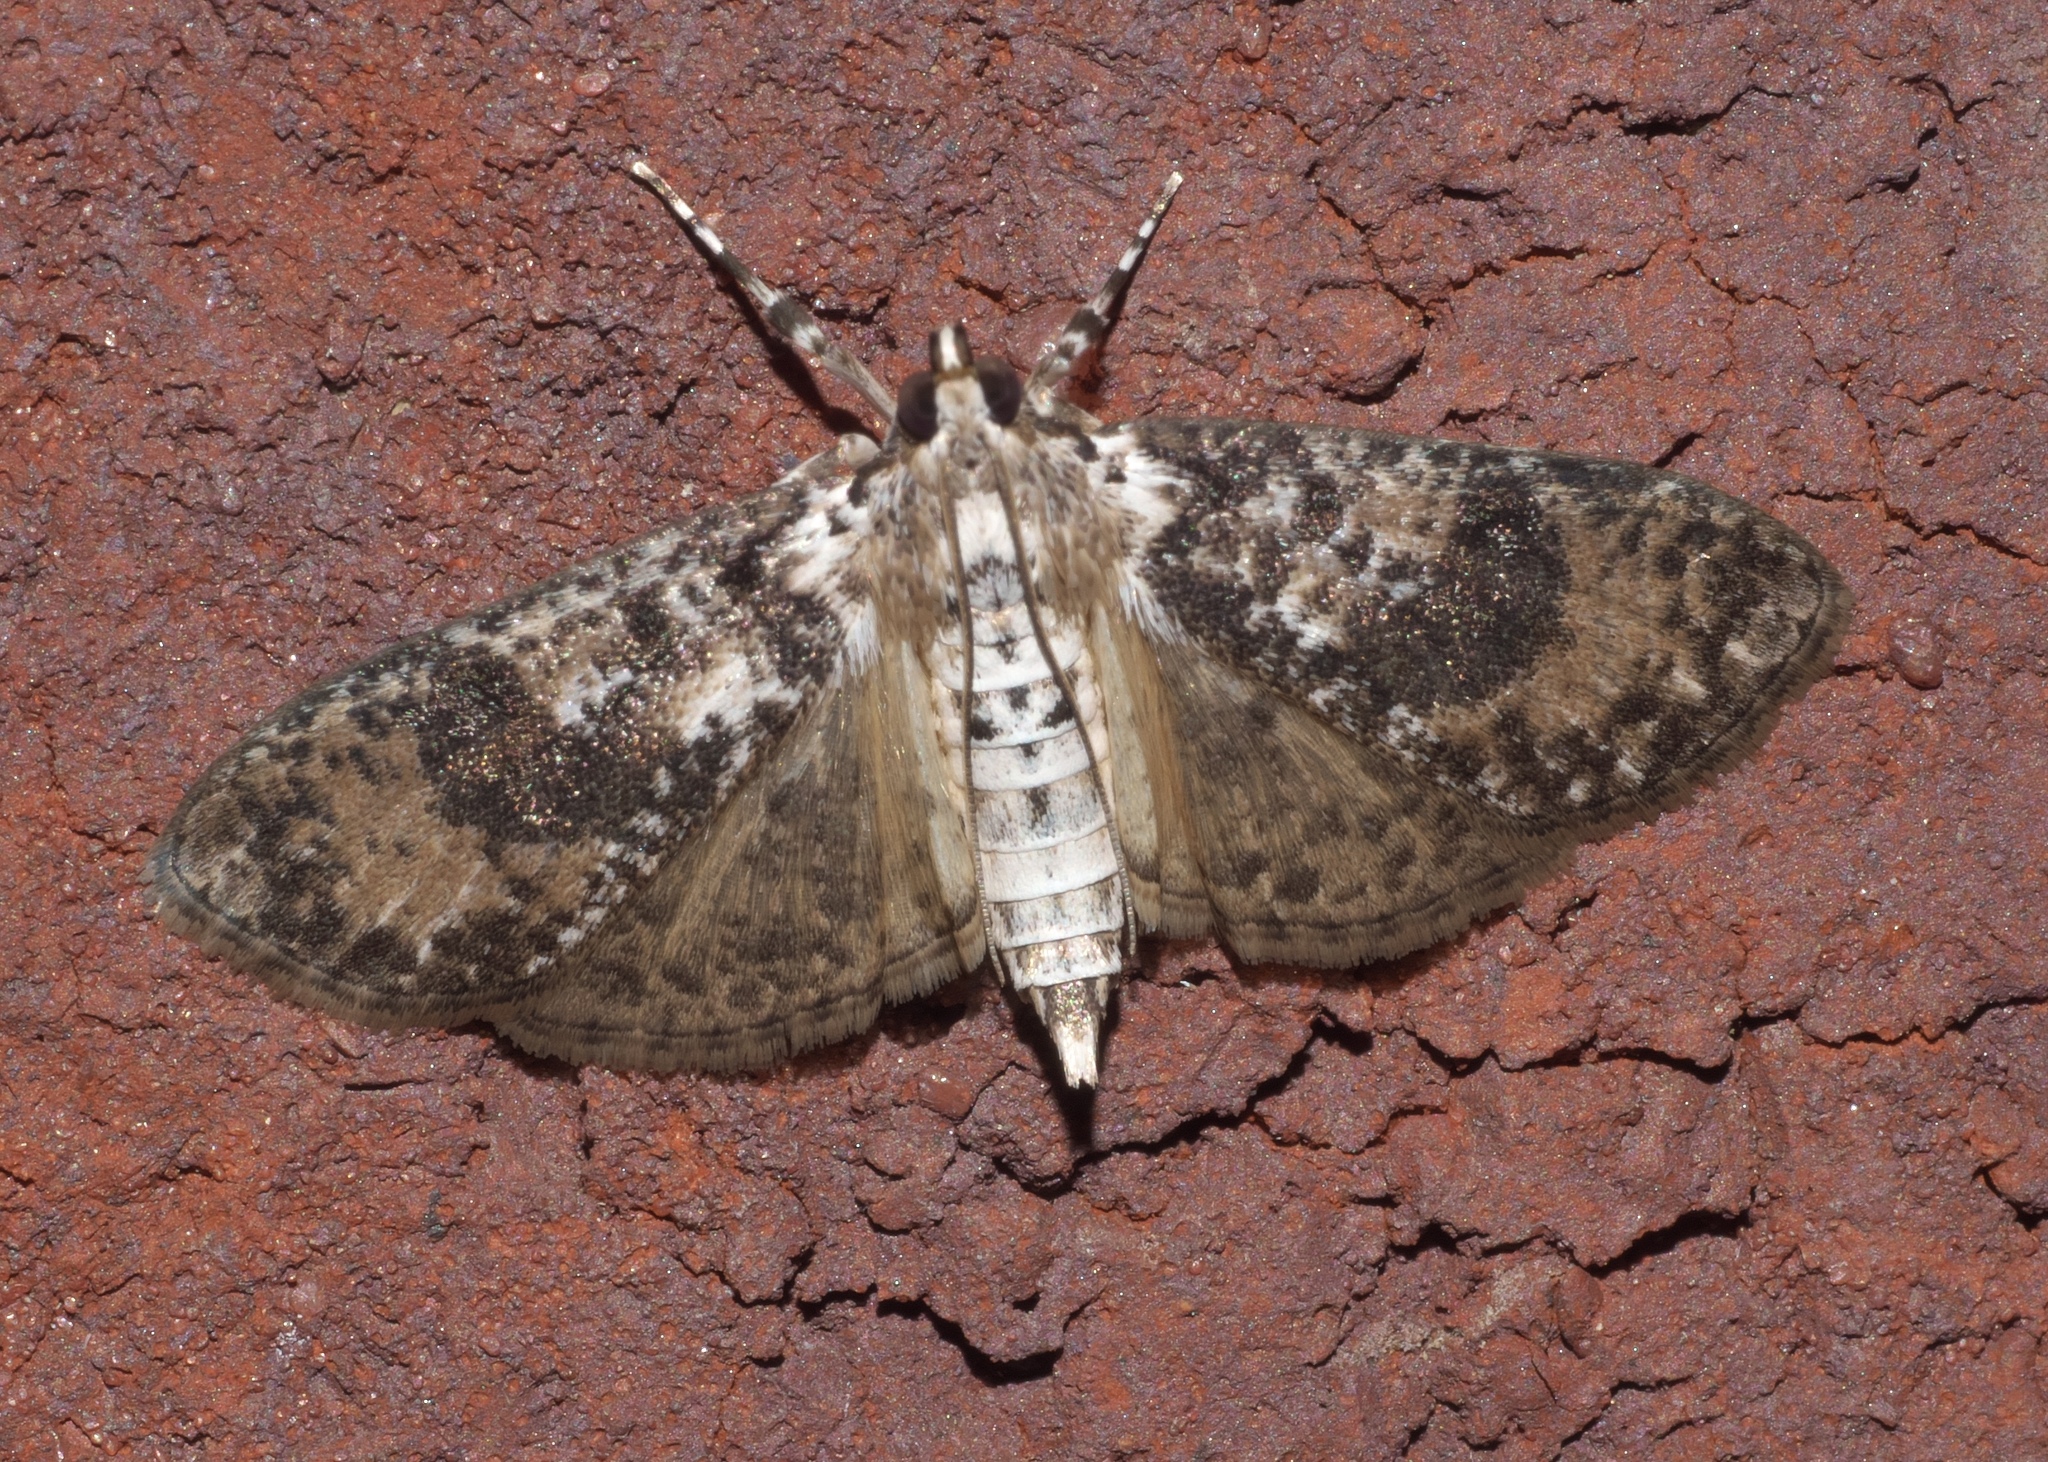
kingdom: Animalia
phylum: Arthropoda
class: Insecta
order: Lepidoptera
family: Crambidae
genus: Palpita
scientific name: Palpita magniferalis
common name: Splendid palpita moth
